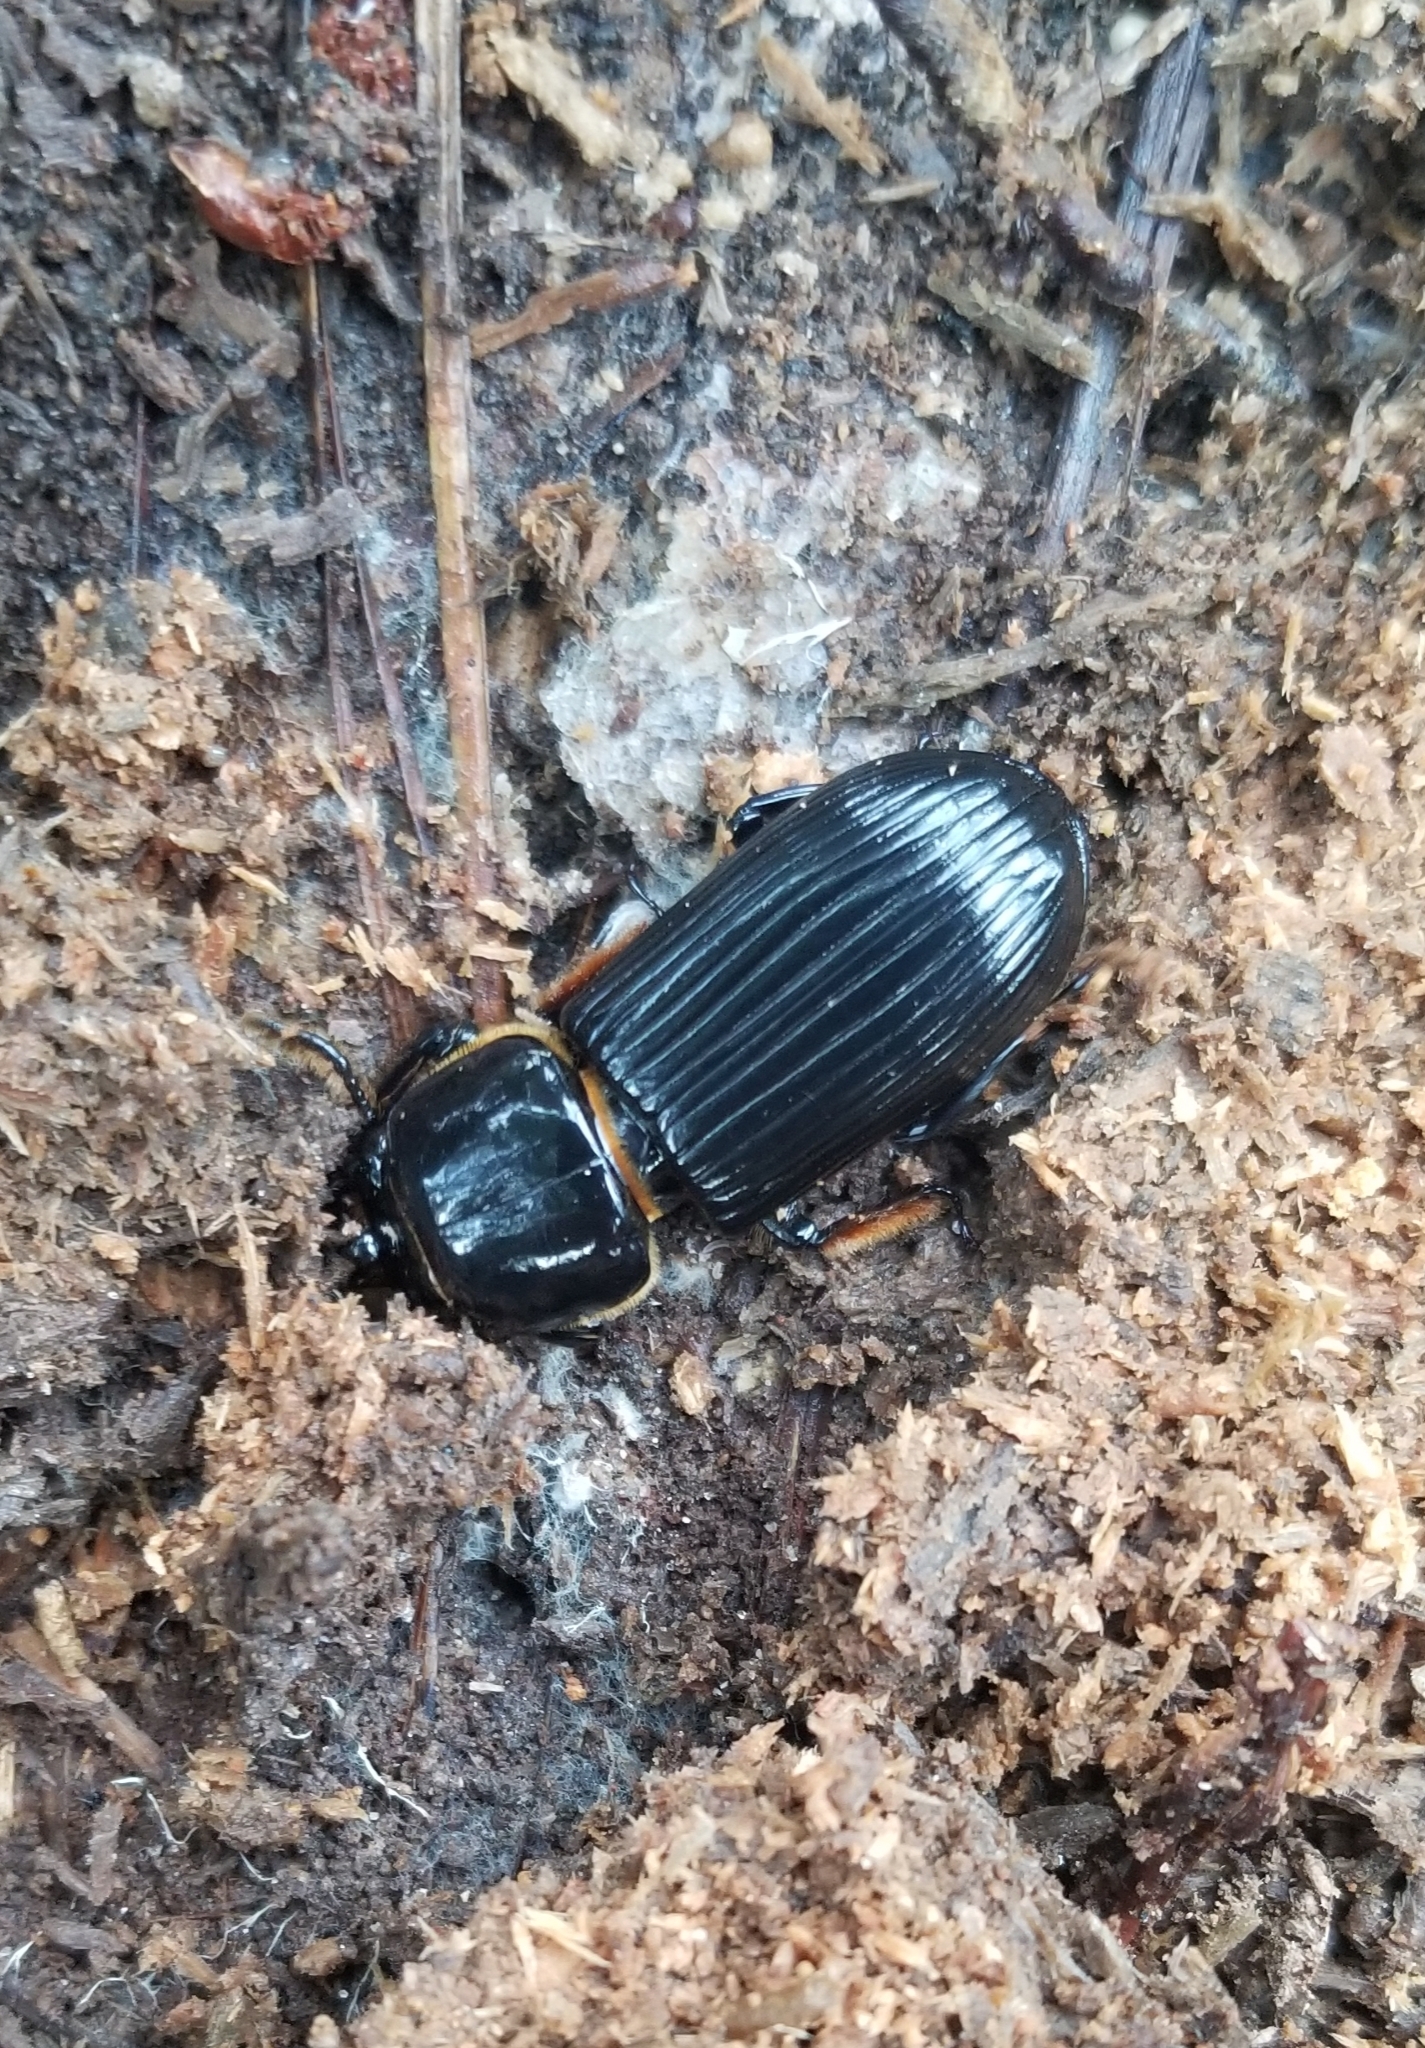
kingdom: Animalia
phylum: Arthropoda
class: Insecta
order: Coleoptera
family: Passalidae
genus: Odontotaenius
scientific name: Odontotaenius disjunctus
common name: Patent leather beetle
